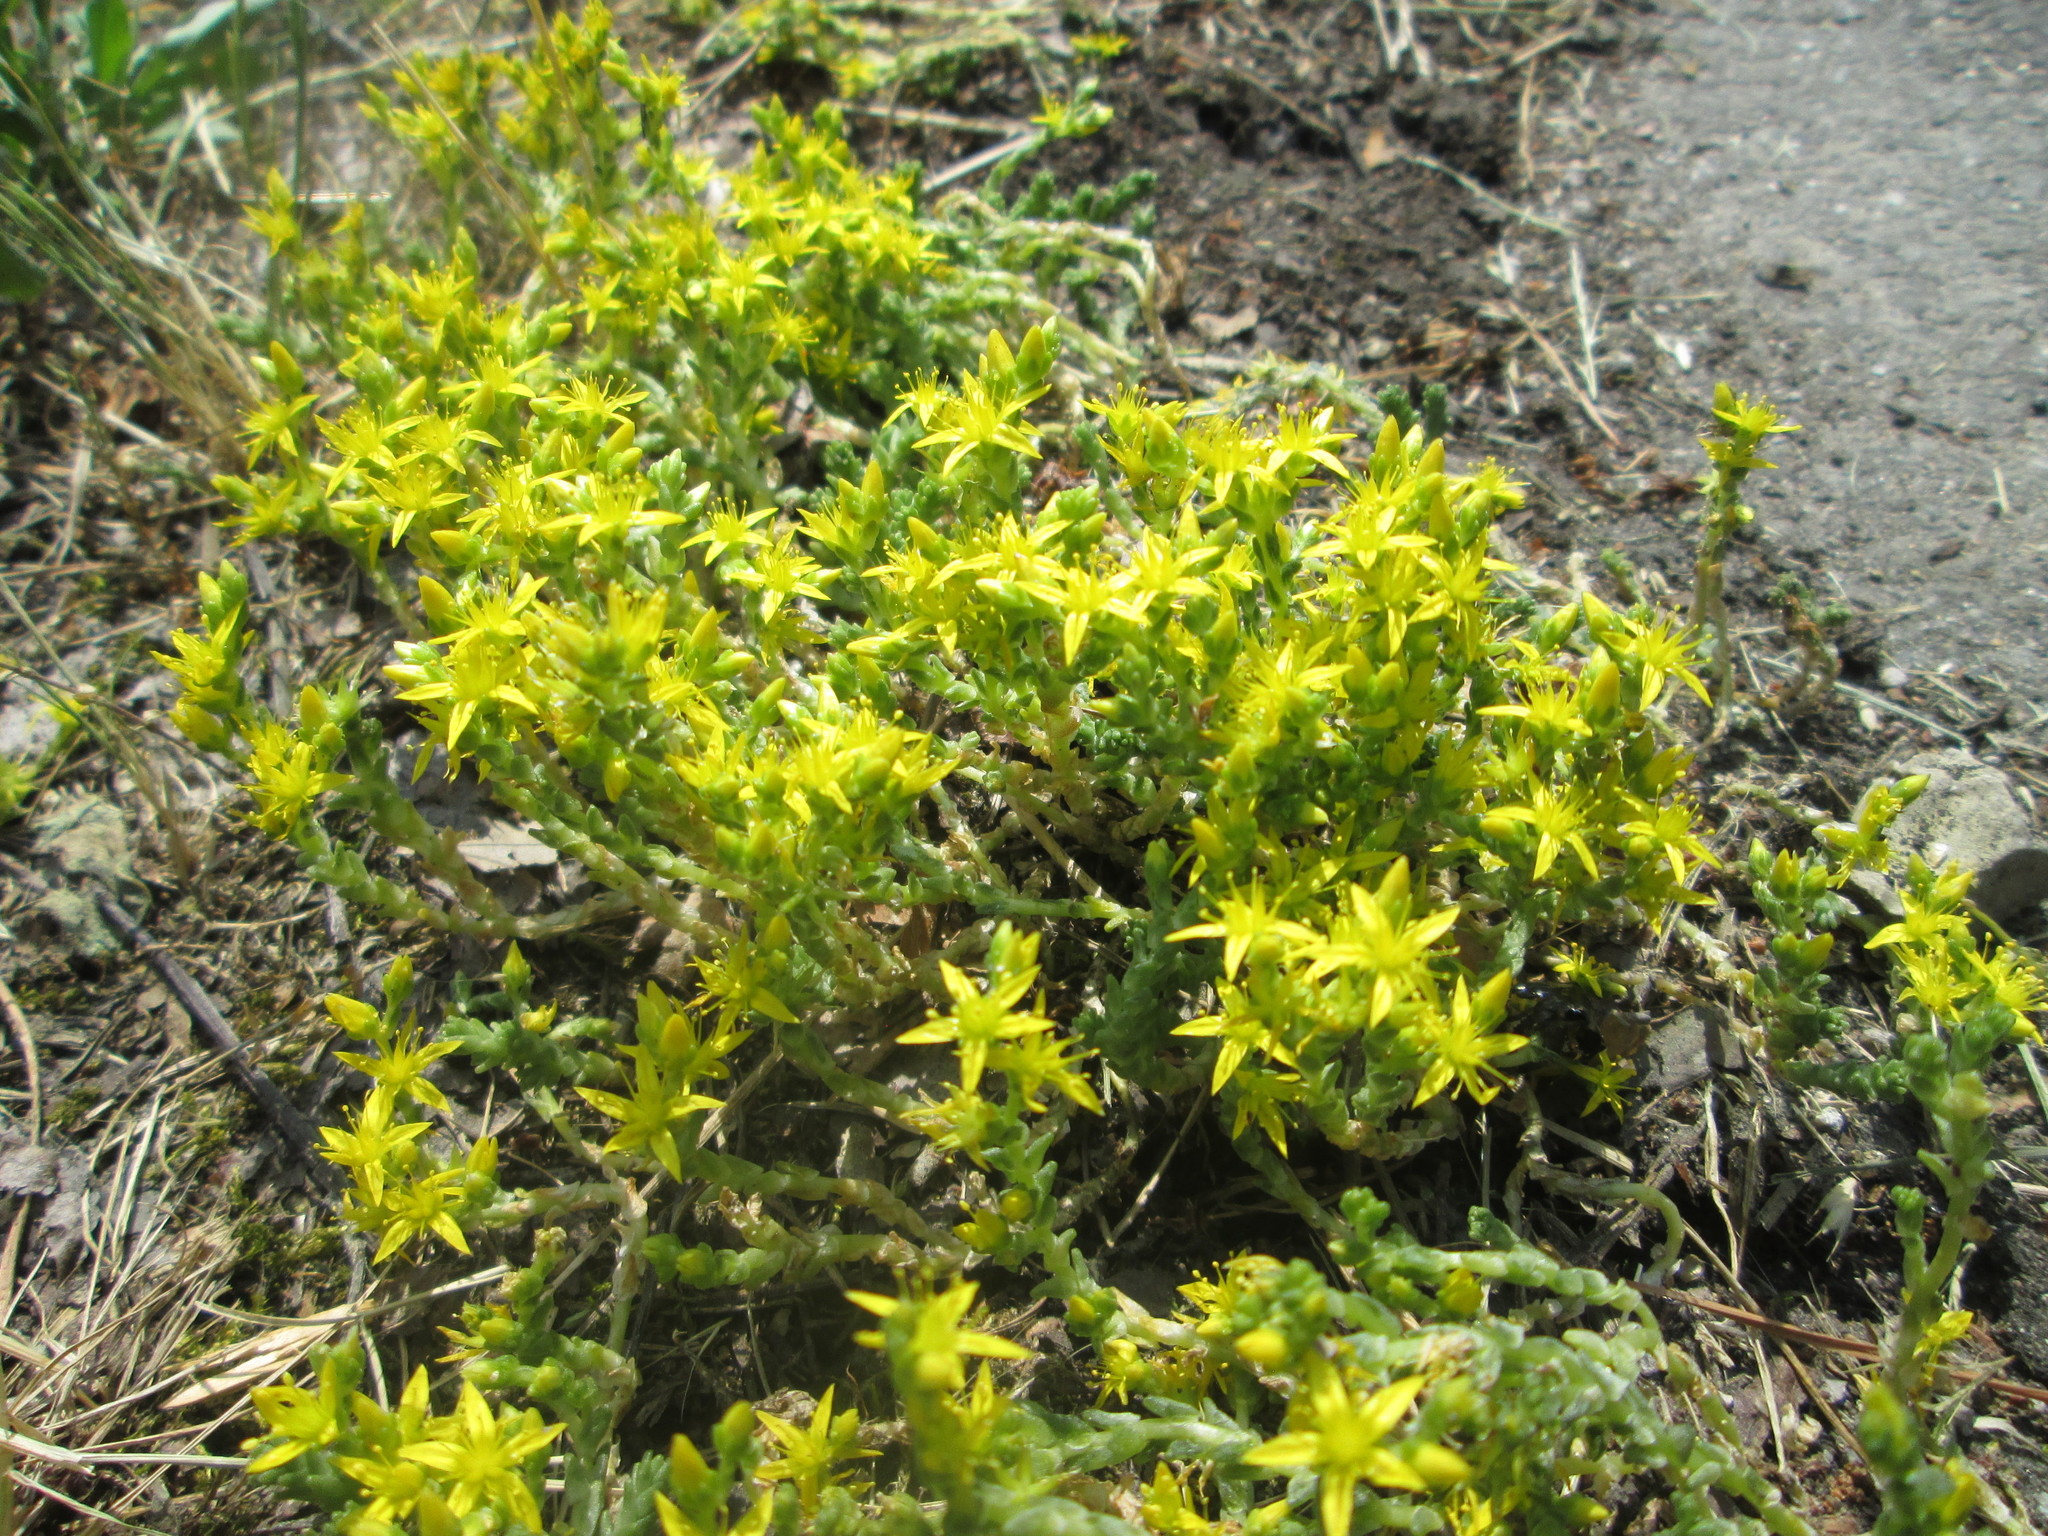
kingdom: Plantae
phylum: Tracheophyta
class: Magnoliopsida
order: Saxifragales
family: Crassulaceae
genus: Sedum
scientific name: Sedum acre
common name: Biting stonecrop
